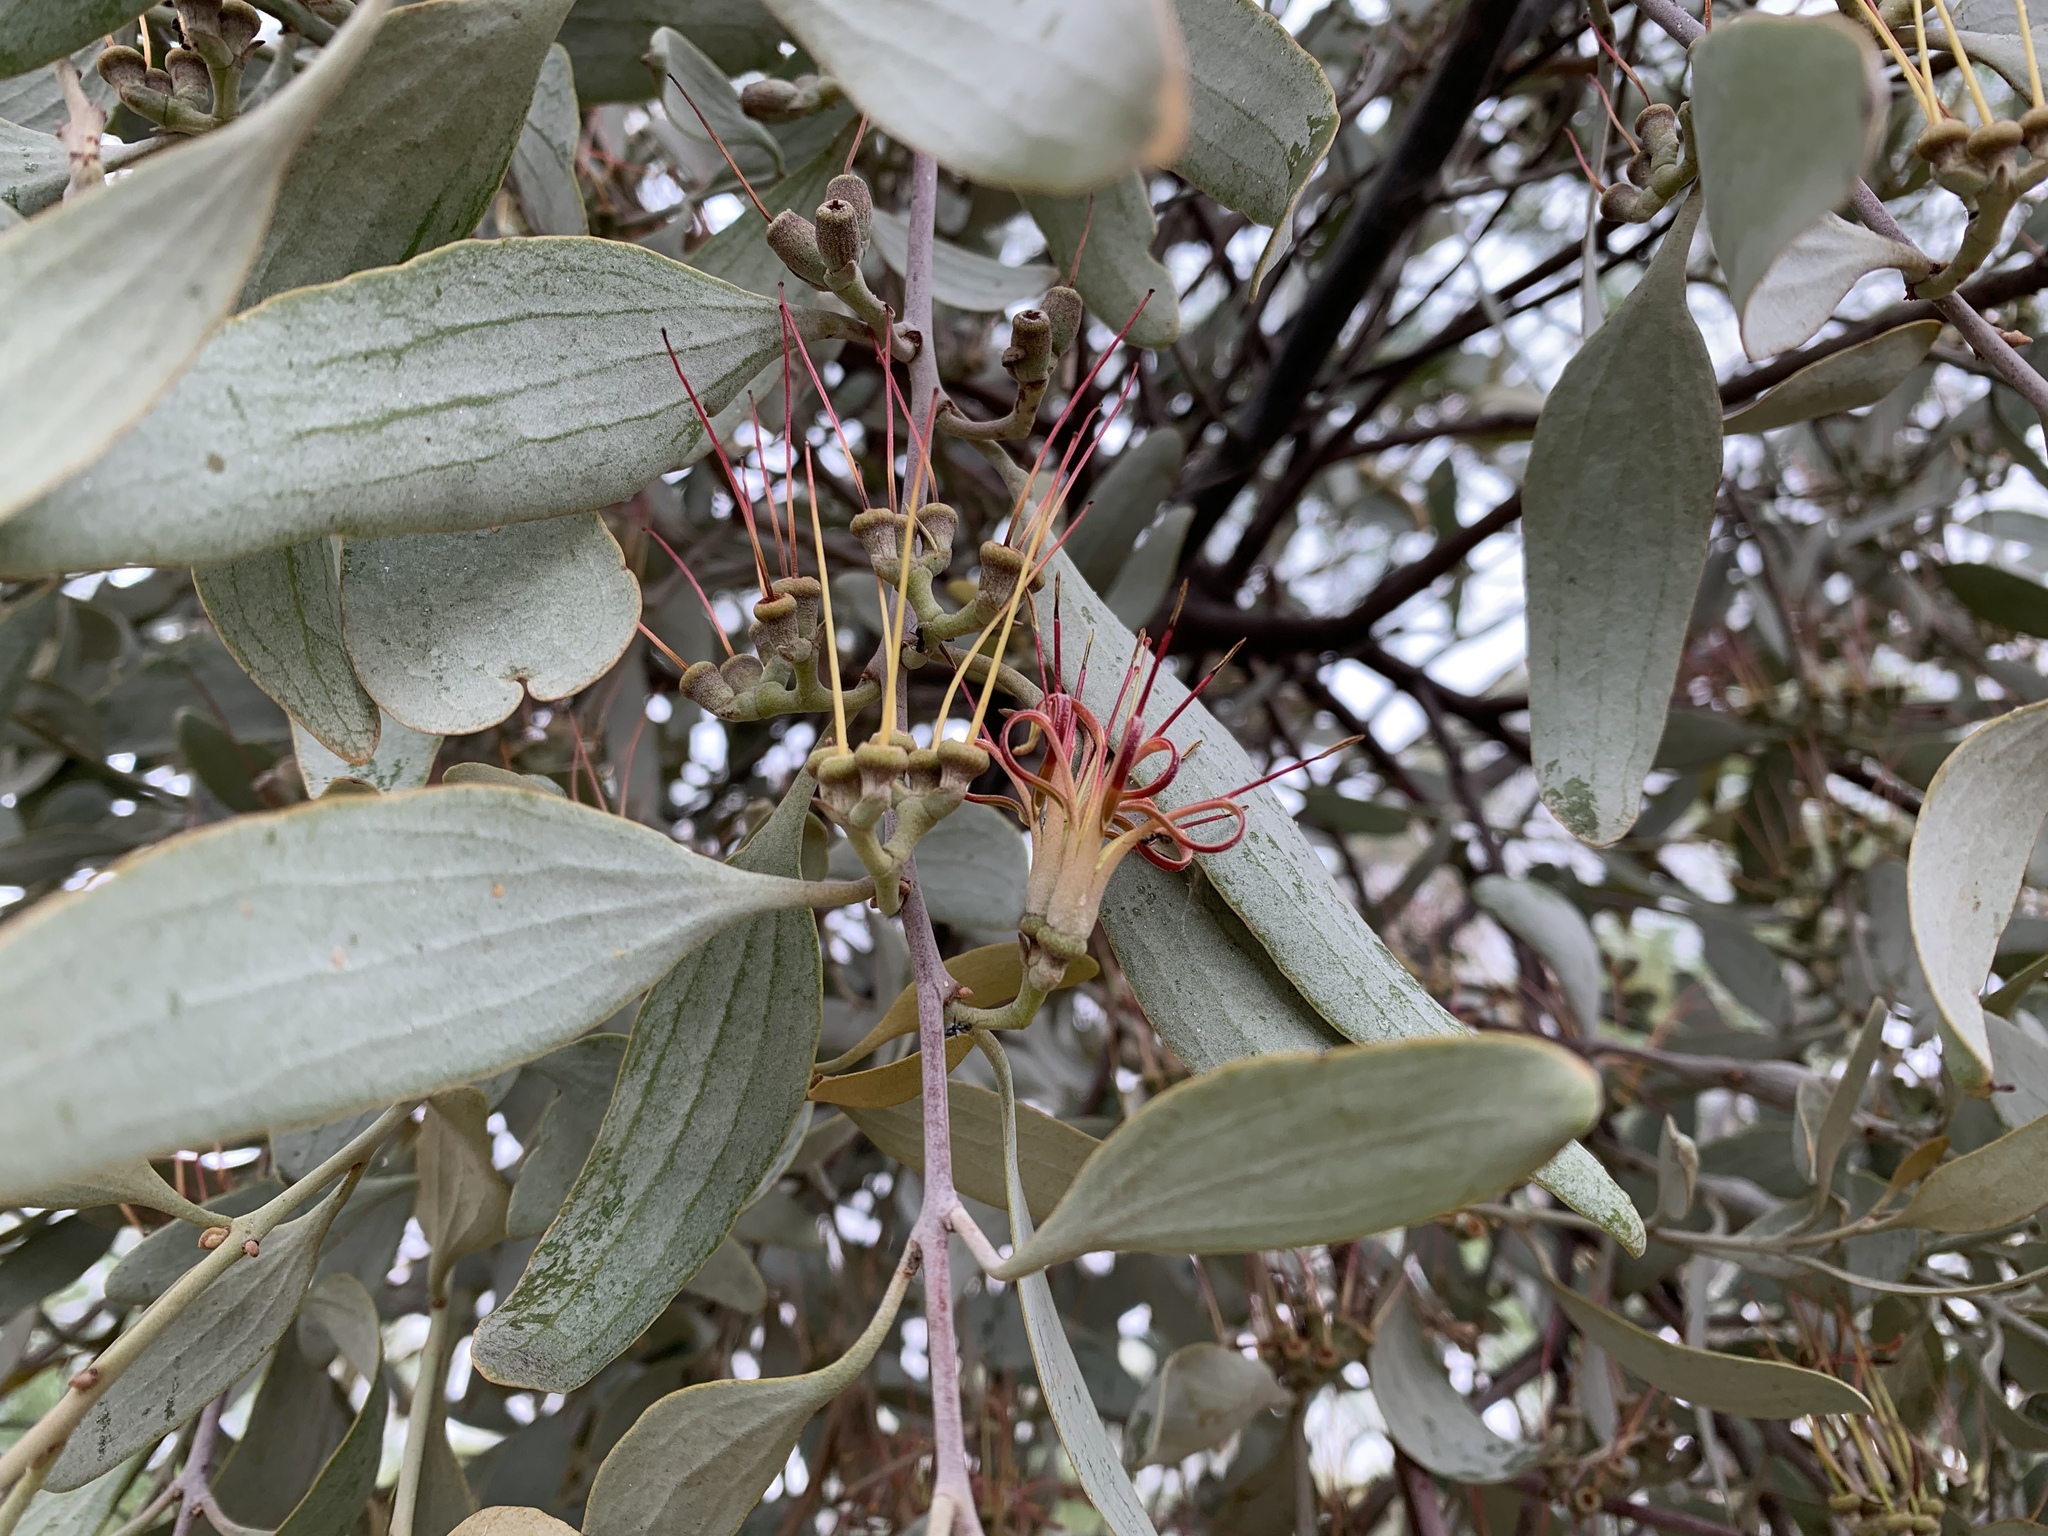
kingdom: Plantae
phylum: Tracheophyta
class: Magnoliopsida
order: Santalales
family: Loranthaceae
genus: Amyema
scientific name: Amyema quandang
